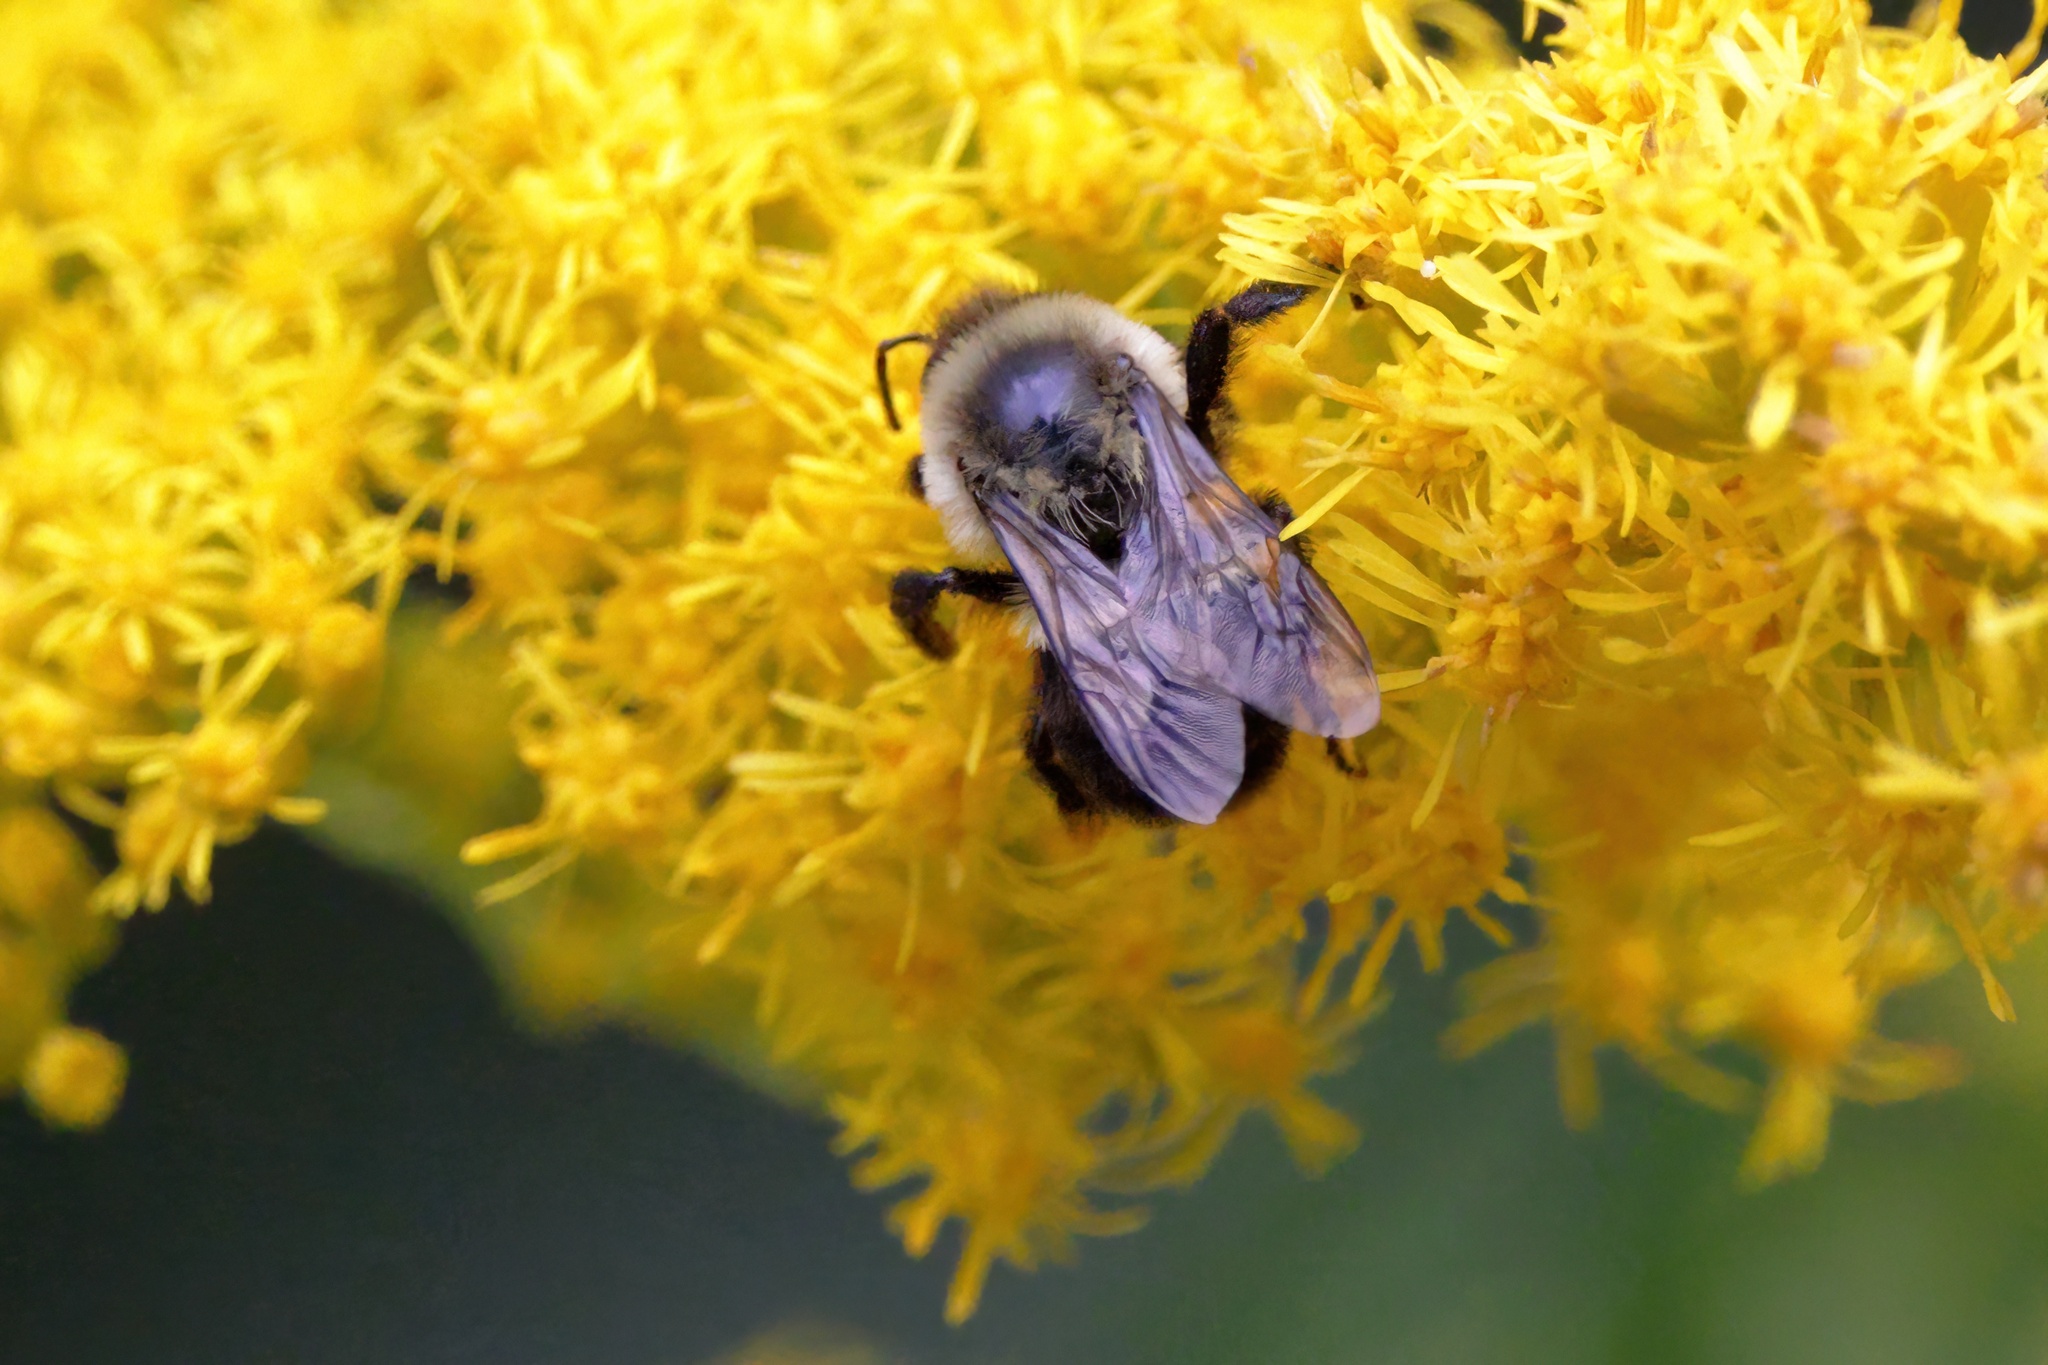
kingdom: Animalia
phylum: Arthropoda
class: Insecta
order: Hymenoptera
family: Apidae
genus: Bombus
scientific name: Bombus impatiens
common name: Common eastern bumble bee
